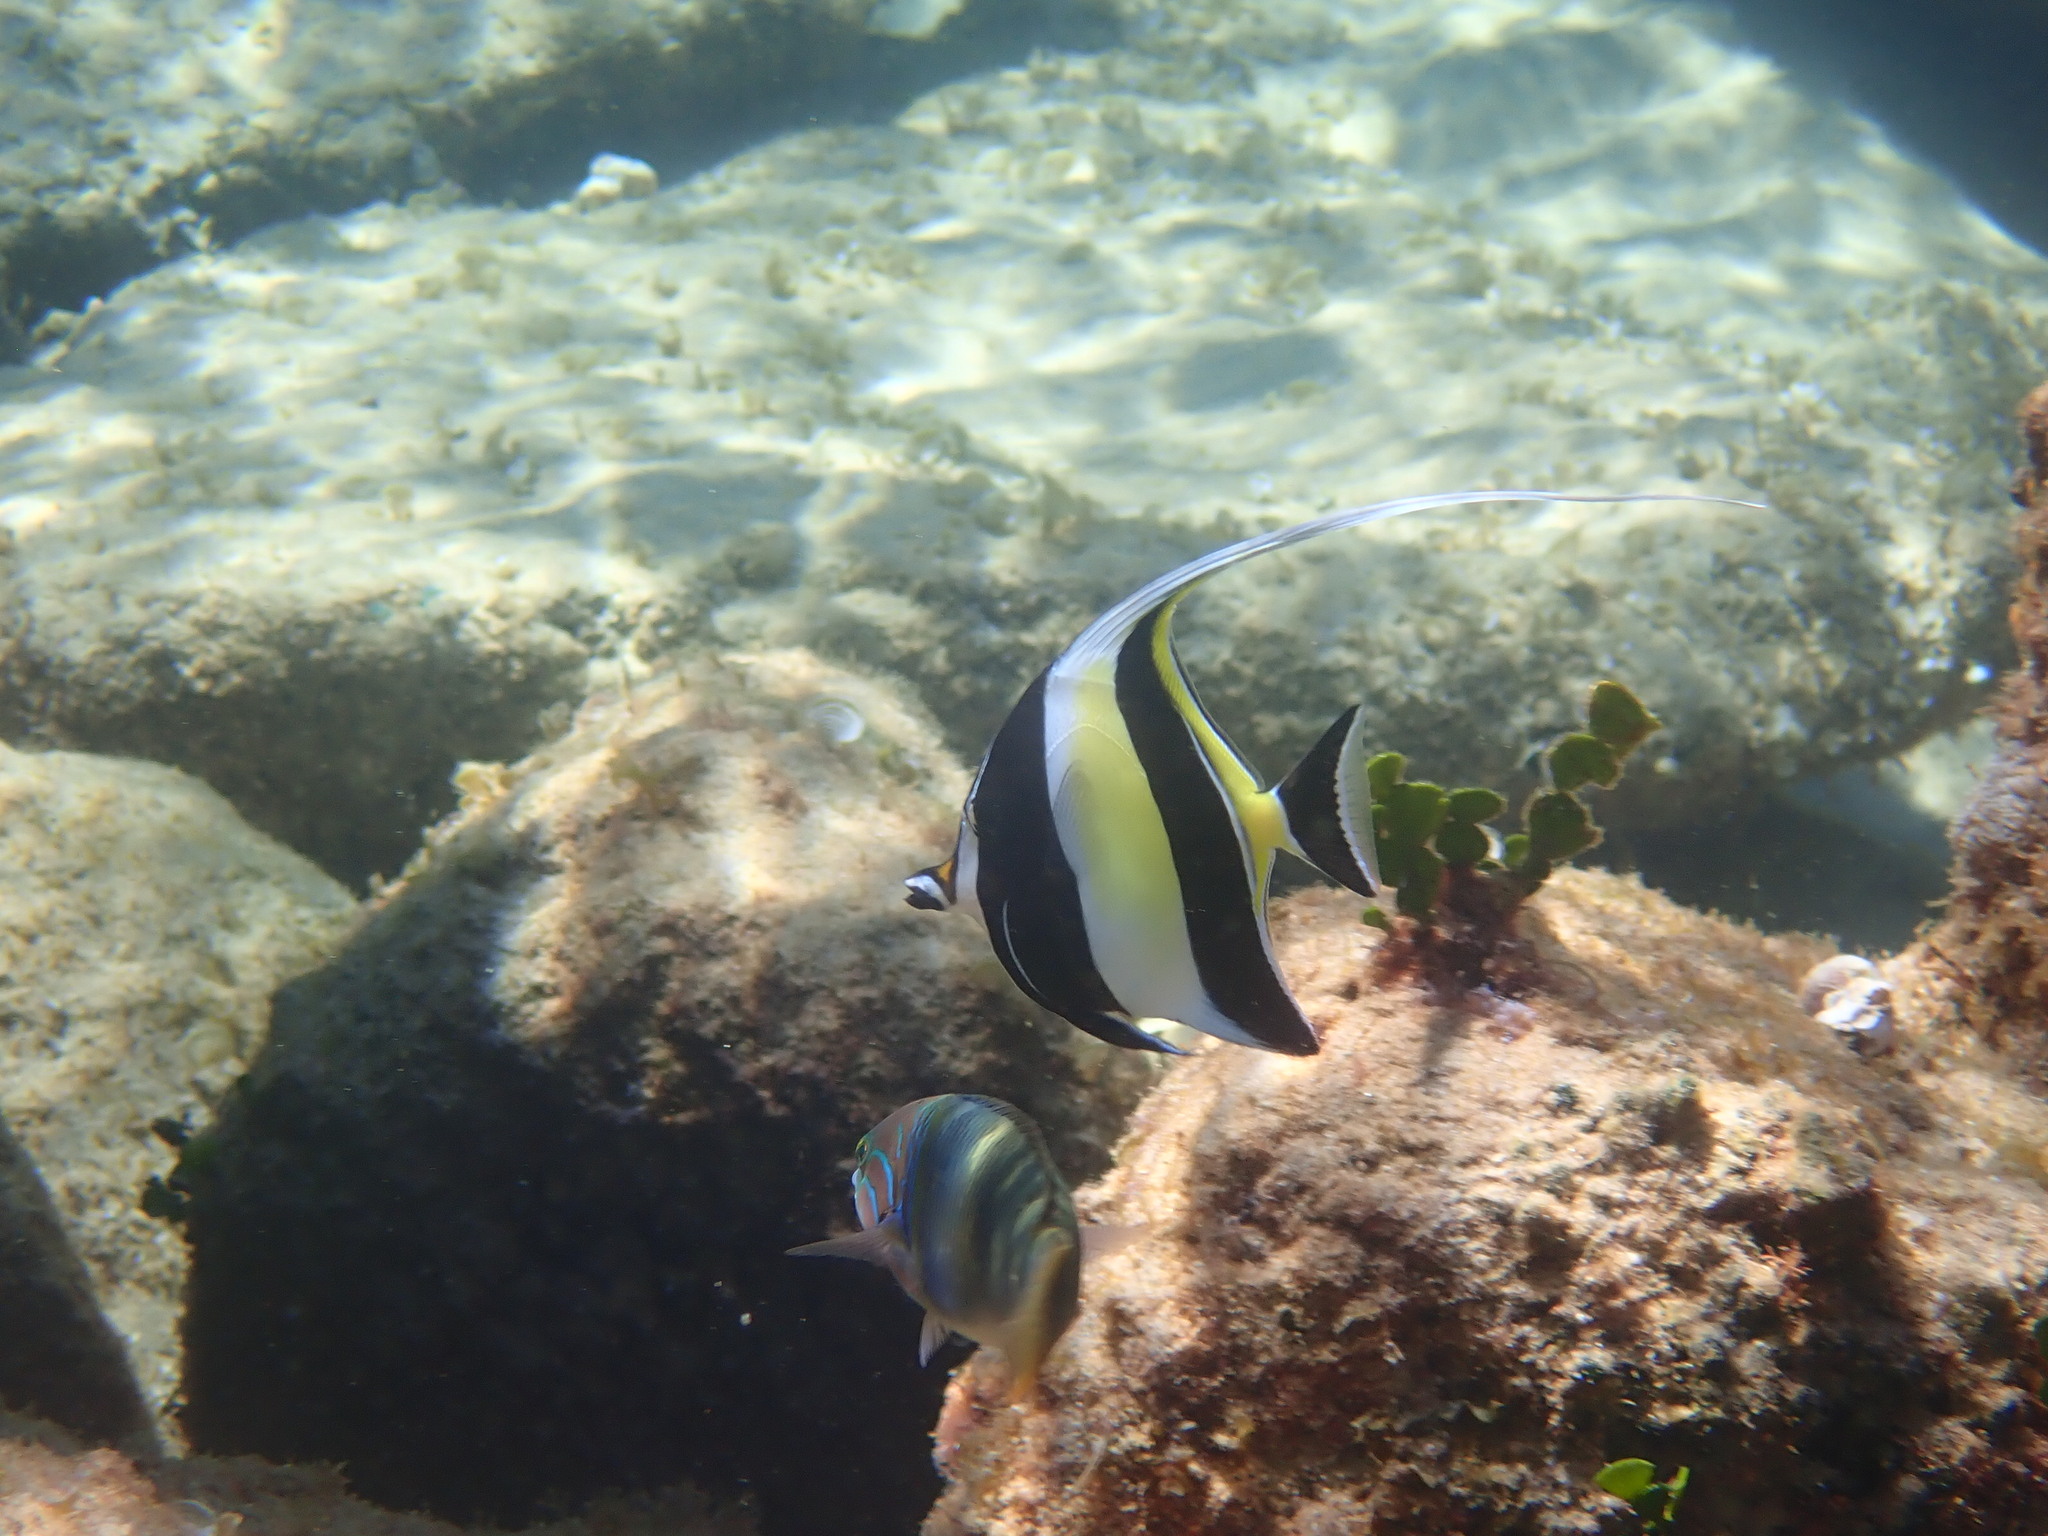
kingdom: Animalia
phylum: Chordata
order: Perciformes
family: Zanclidae
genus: Zanclus
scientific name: Zanclus cornutus
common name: Moorish idol
